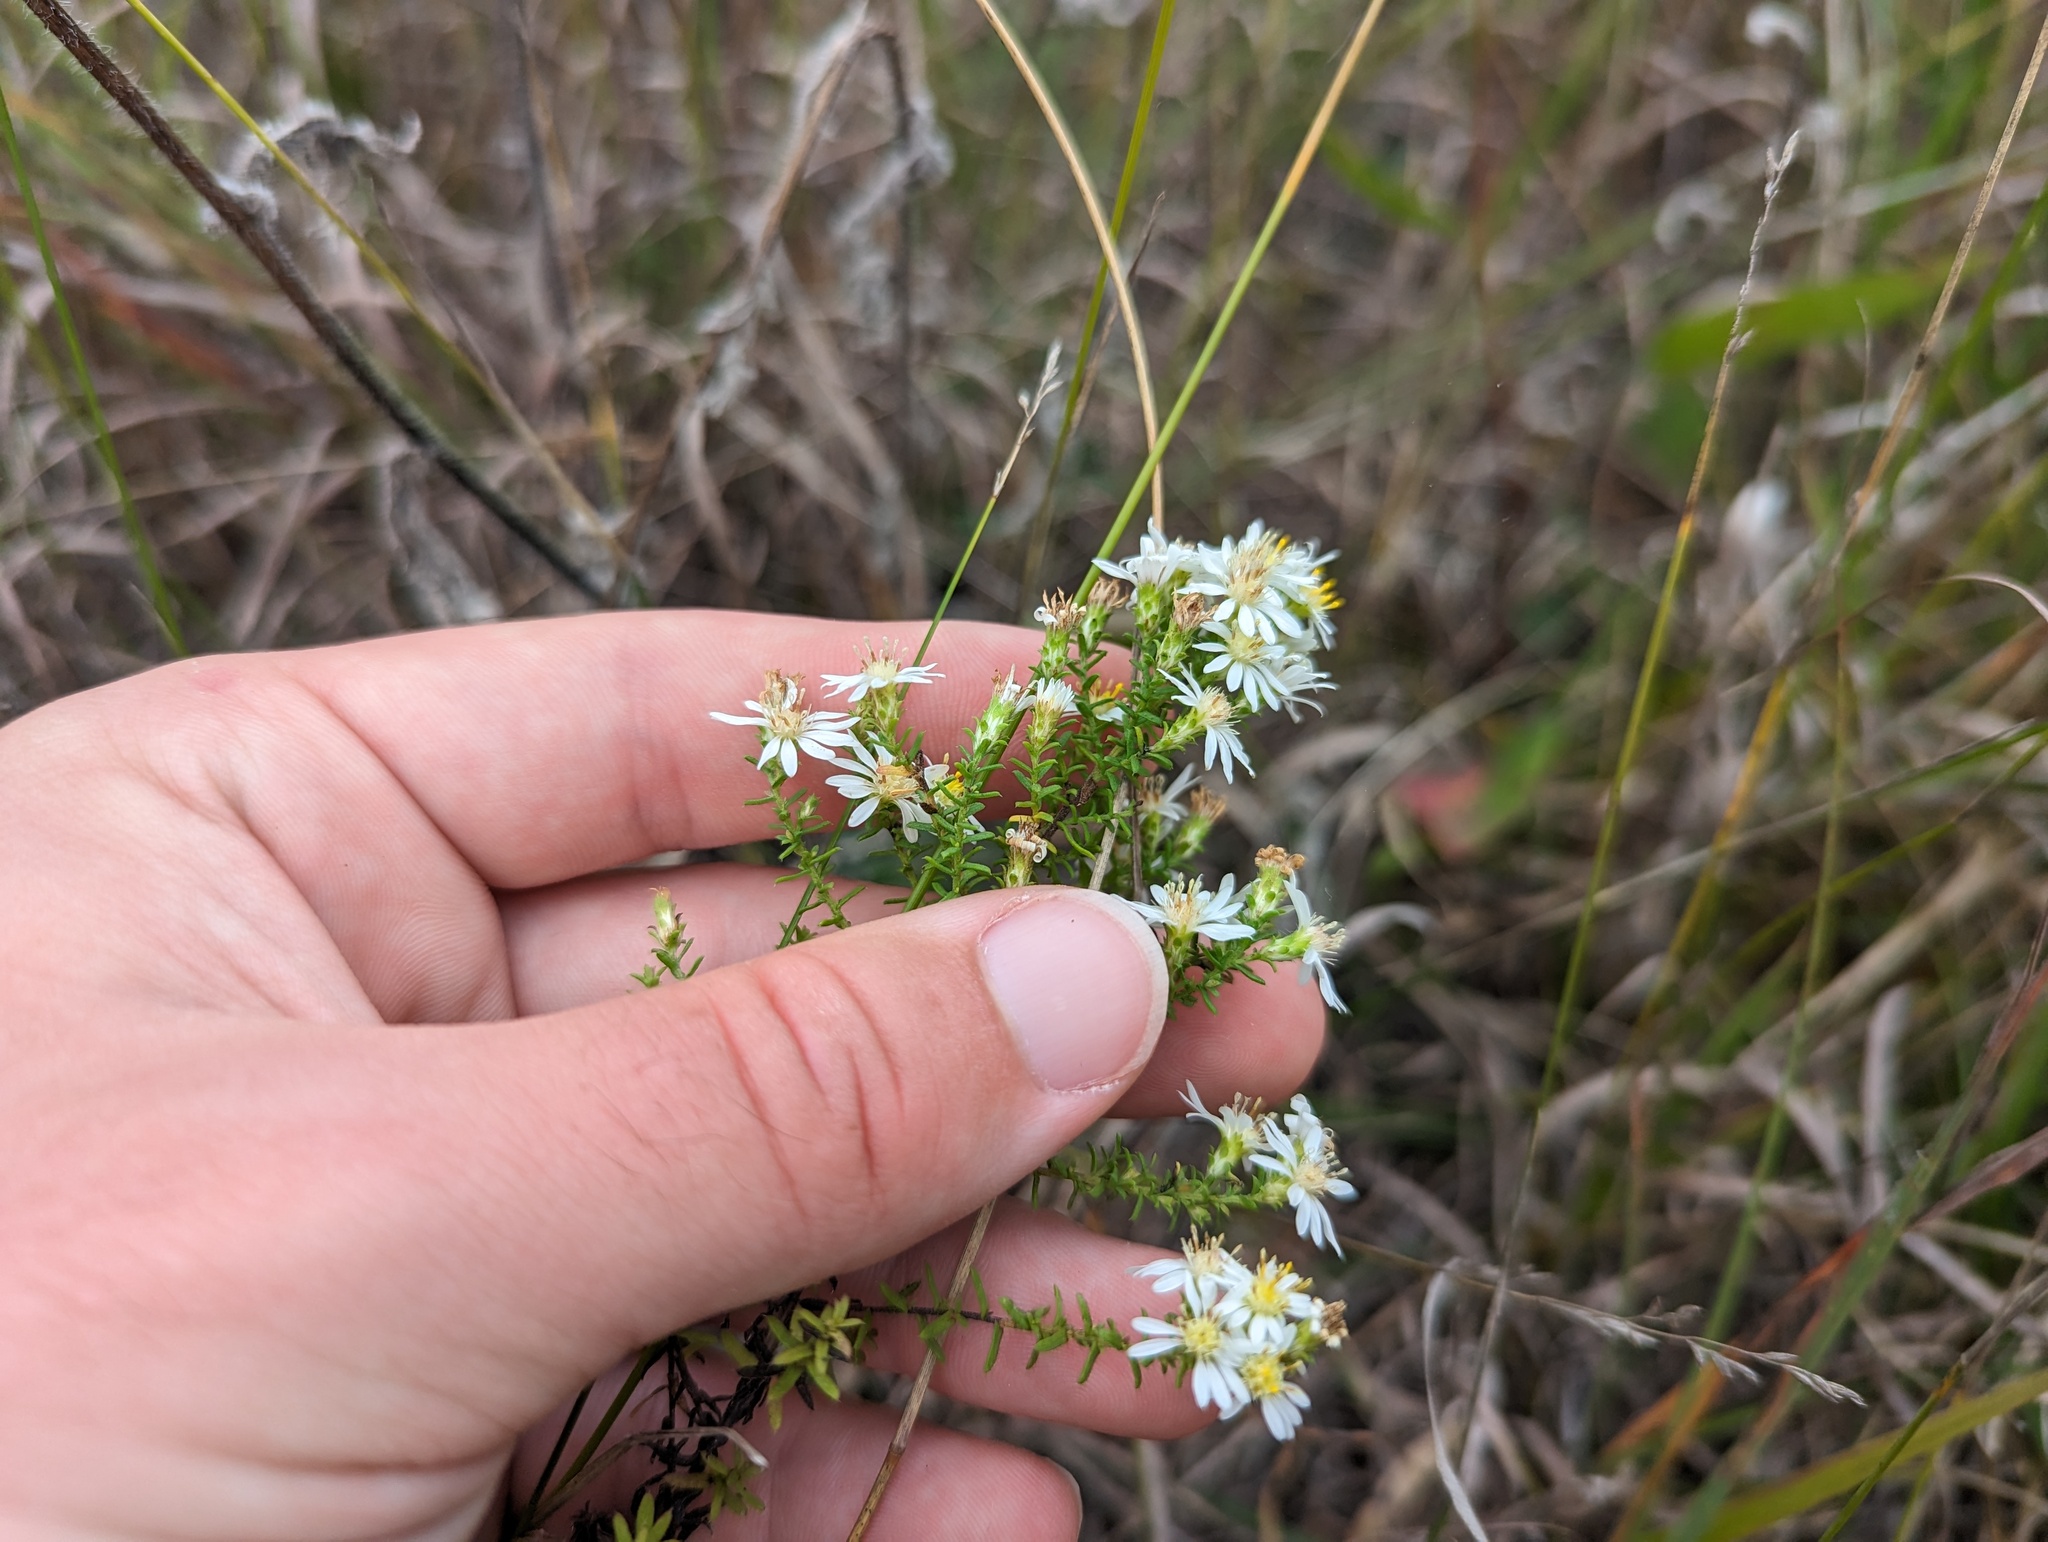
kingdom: Plantae
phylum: Tracheophyta
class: Magnoliopsida
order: Asterales
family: Asteraceae
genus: Symphyotrichum
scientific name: Symphyotrichum ericoides
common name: Heath aster
